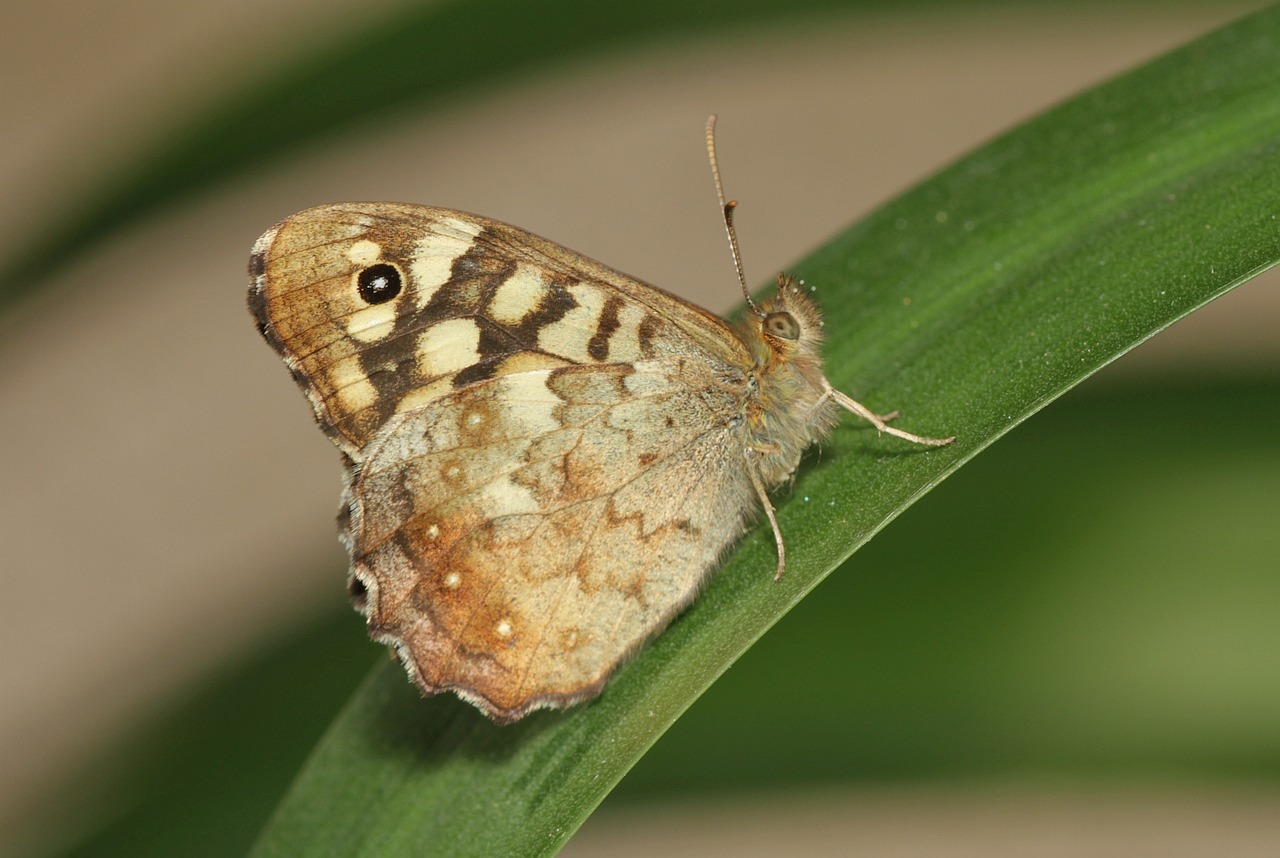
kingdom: Animalia
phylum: Arthropoda
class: Insecta
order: Lepidoptera
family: Nymphalidae
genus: Pararge
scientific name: Pararge aegeria
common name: Speckled wood
